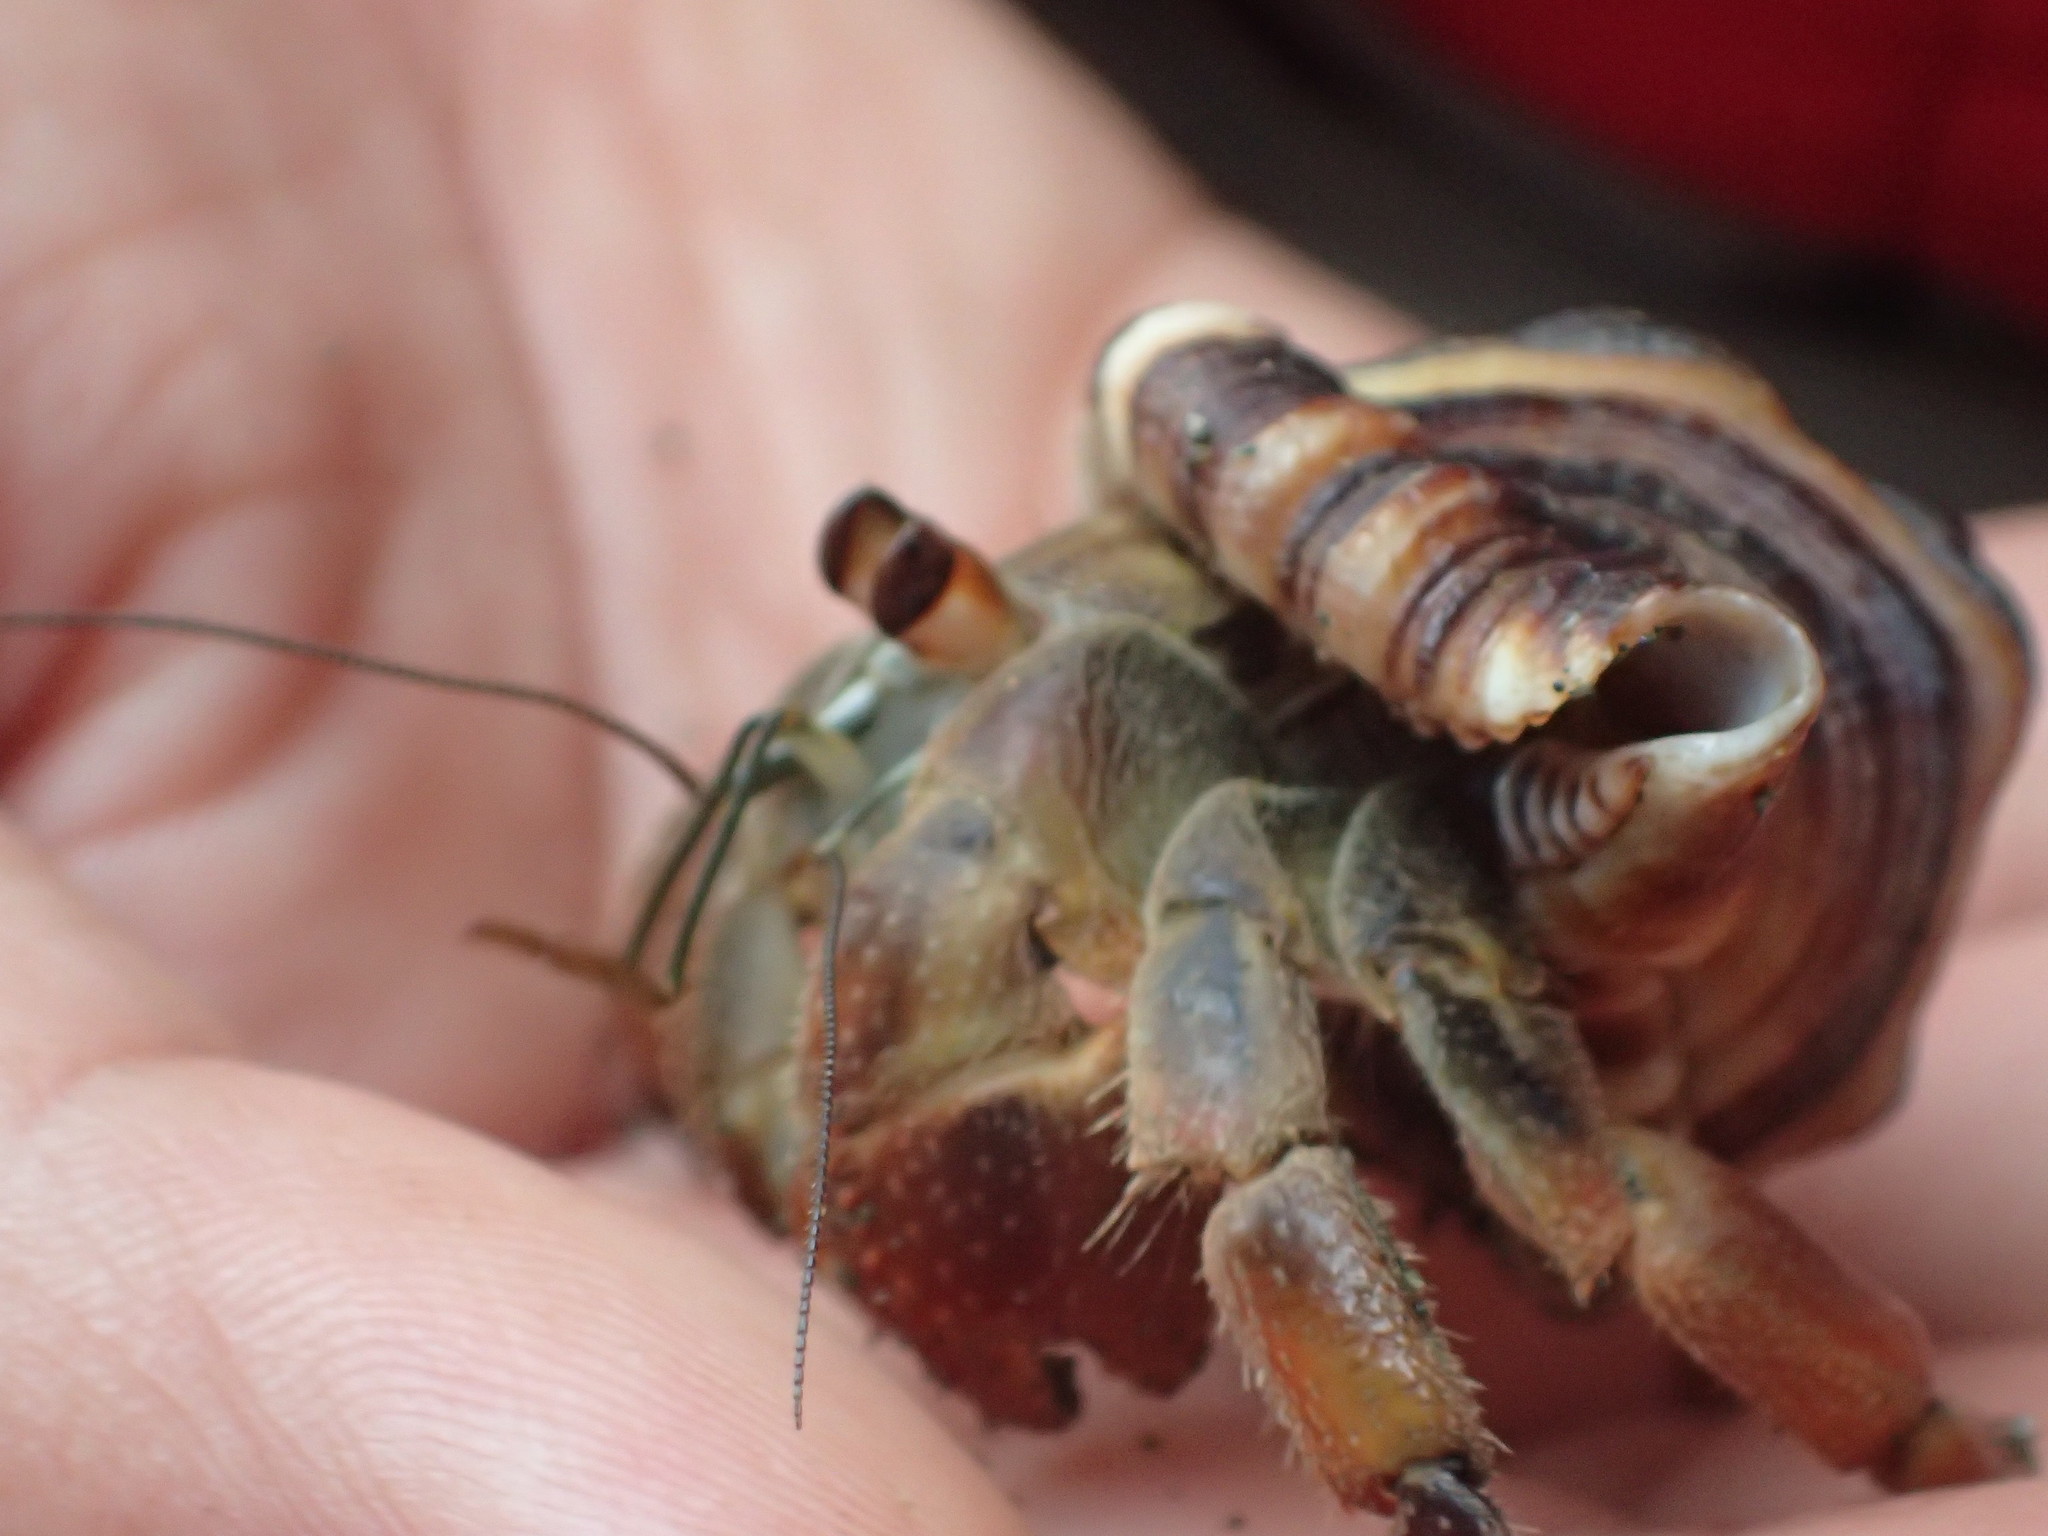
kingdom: Animalia
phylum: Arthropoda
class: Malacostraca
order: Decapoda
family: Coenobitidae
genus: Coenobita
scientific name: Coenobita compressus
